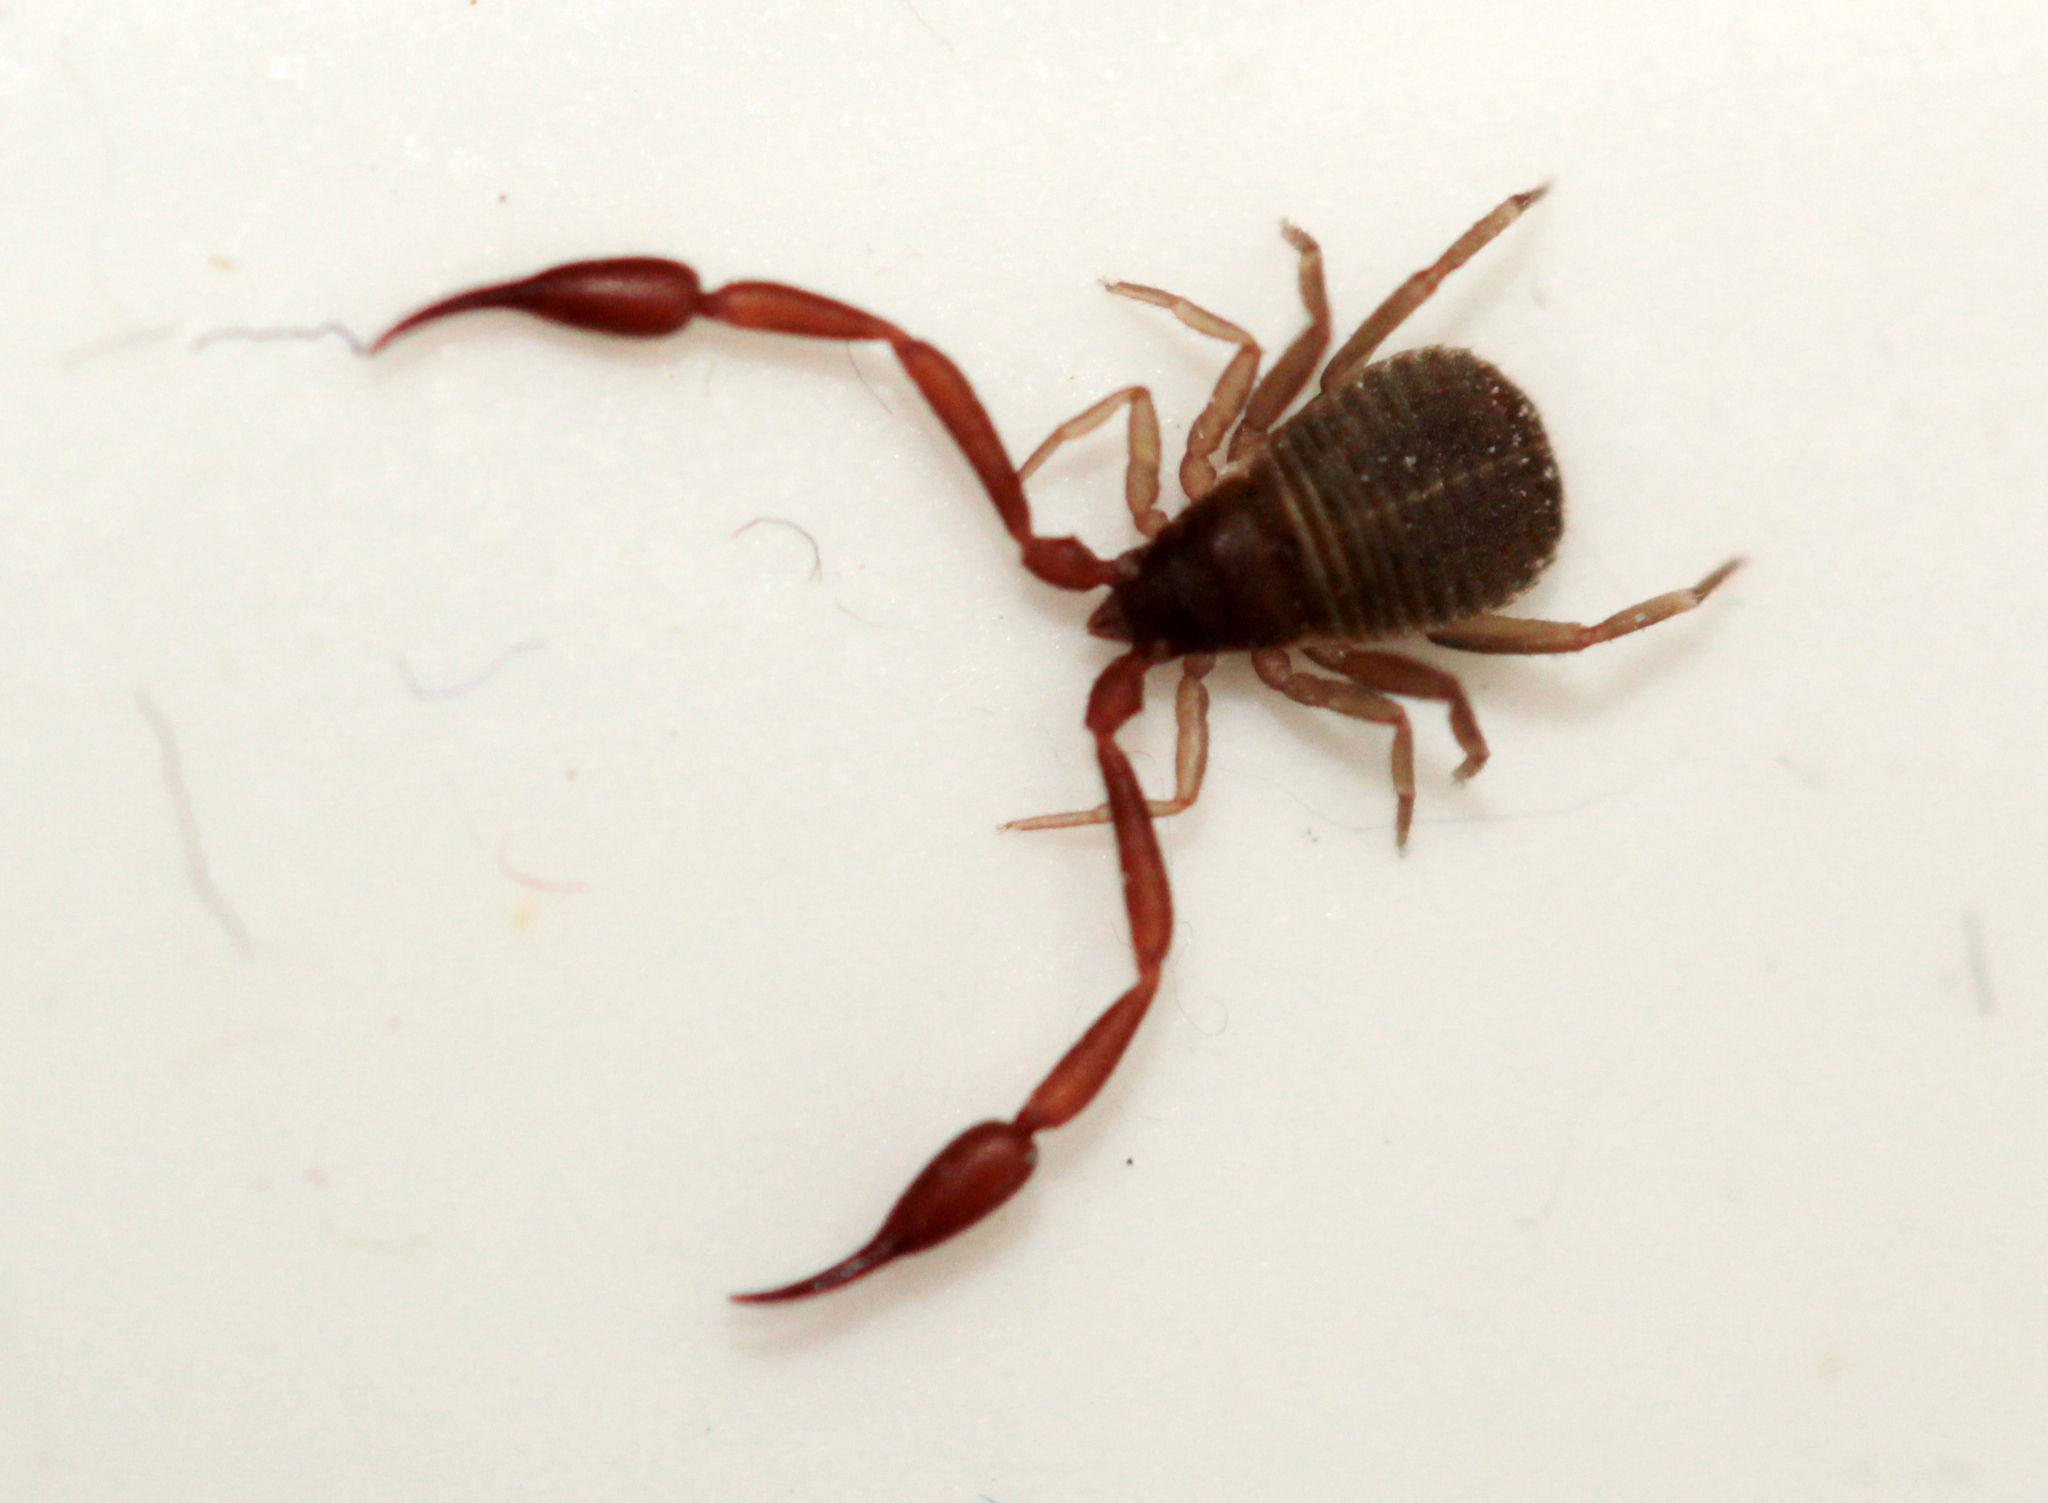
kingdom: Animalia
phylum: Arthropoda
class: Arachnida
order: Pseudoscorpiones
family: Cheliferidae
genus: Chelifer
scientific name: Chelifer cancroides
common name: House false-scorpion
